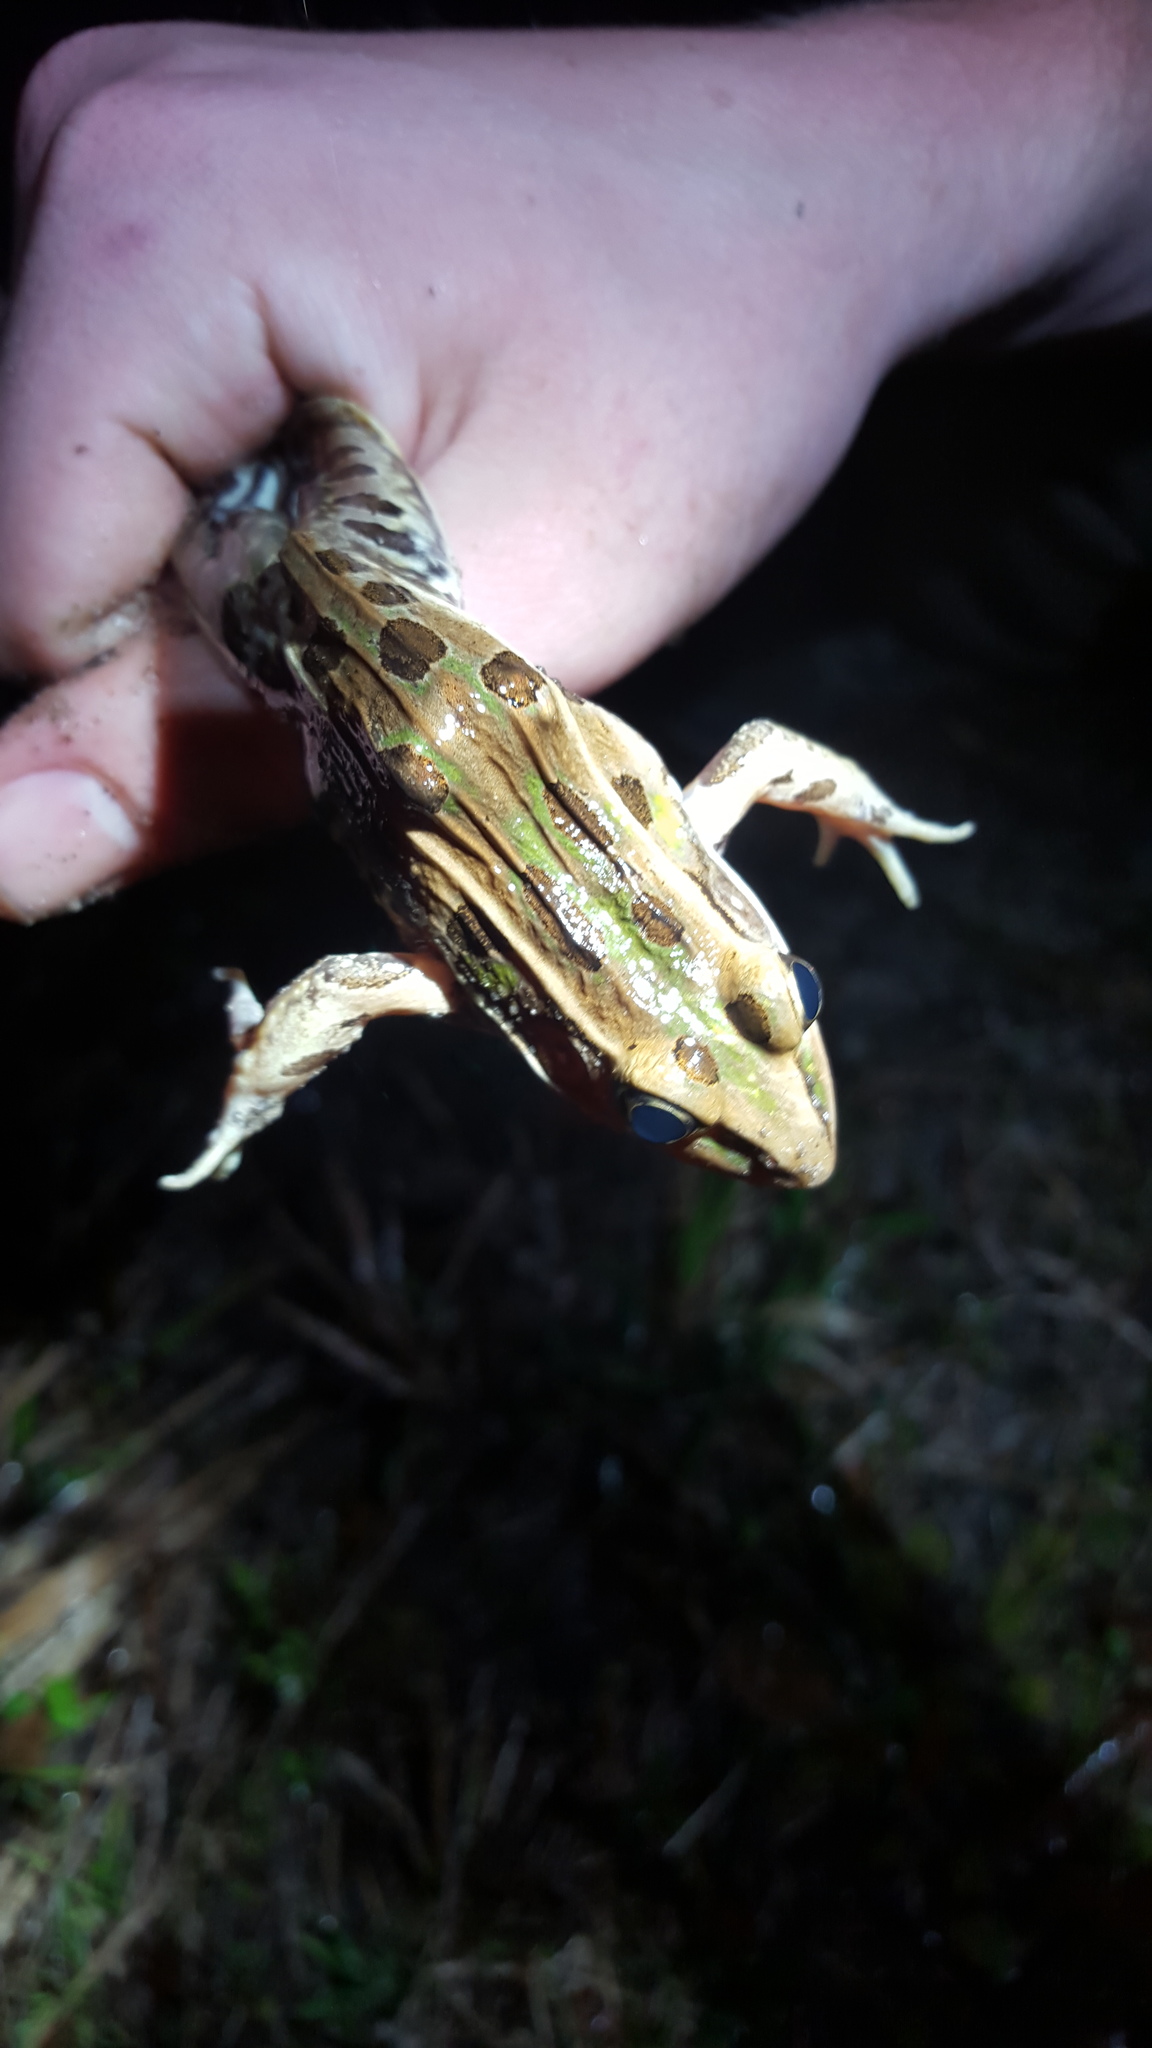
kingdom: Animalia
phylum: Chordata
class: Amphibia
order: Anura
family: Ranidae
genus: Lithobates
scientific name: Lithobates sphenocephalus
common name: Southern leopard frog
